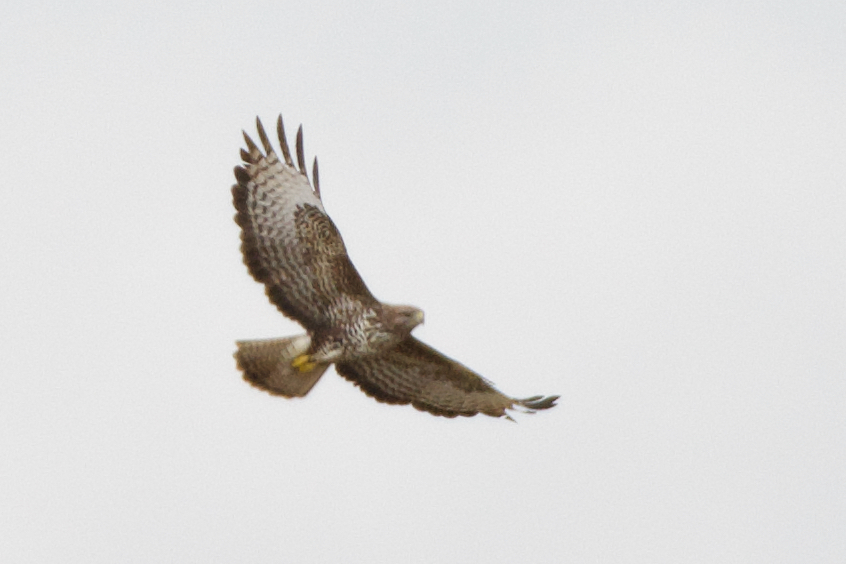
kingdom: Animalia
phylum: Chordata
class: Aves
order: Accipitriformes
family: Accipitridae
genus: Buteo
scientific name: Buteo buteo
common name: Common buzzard
